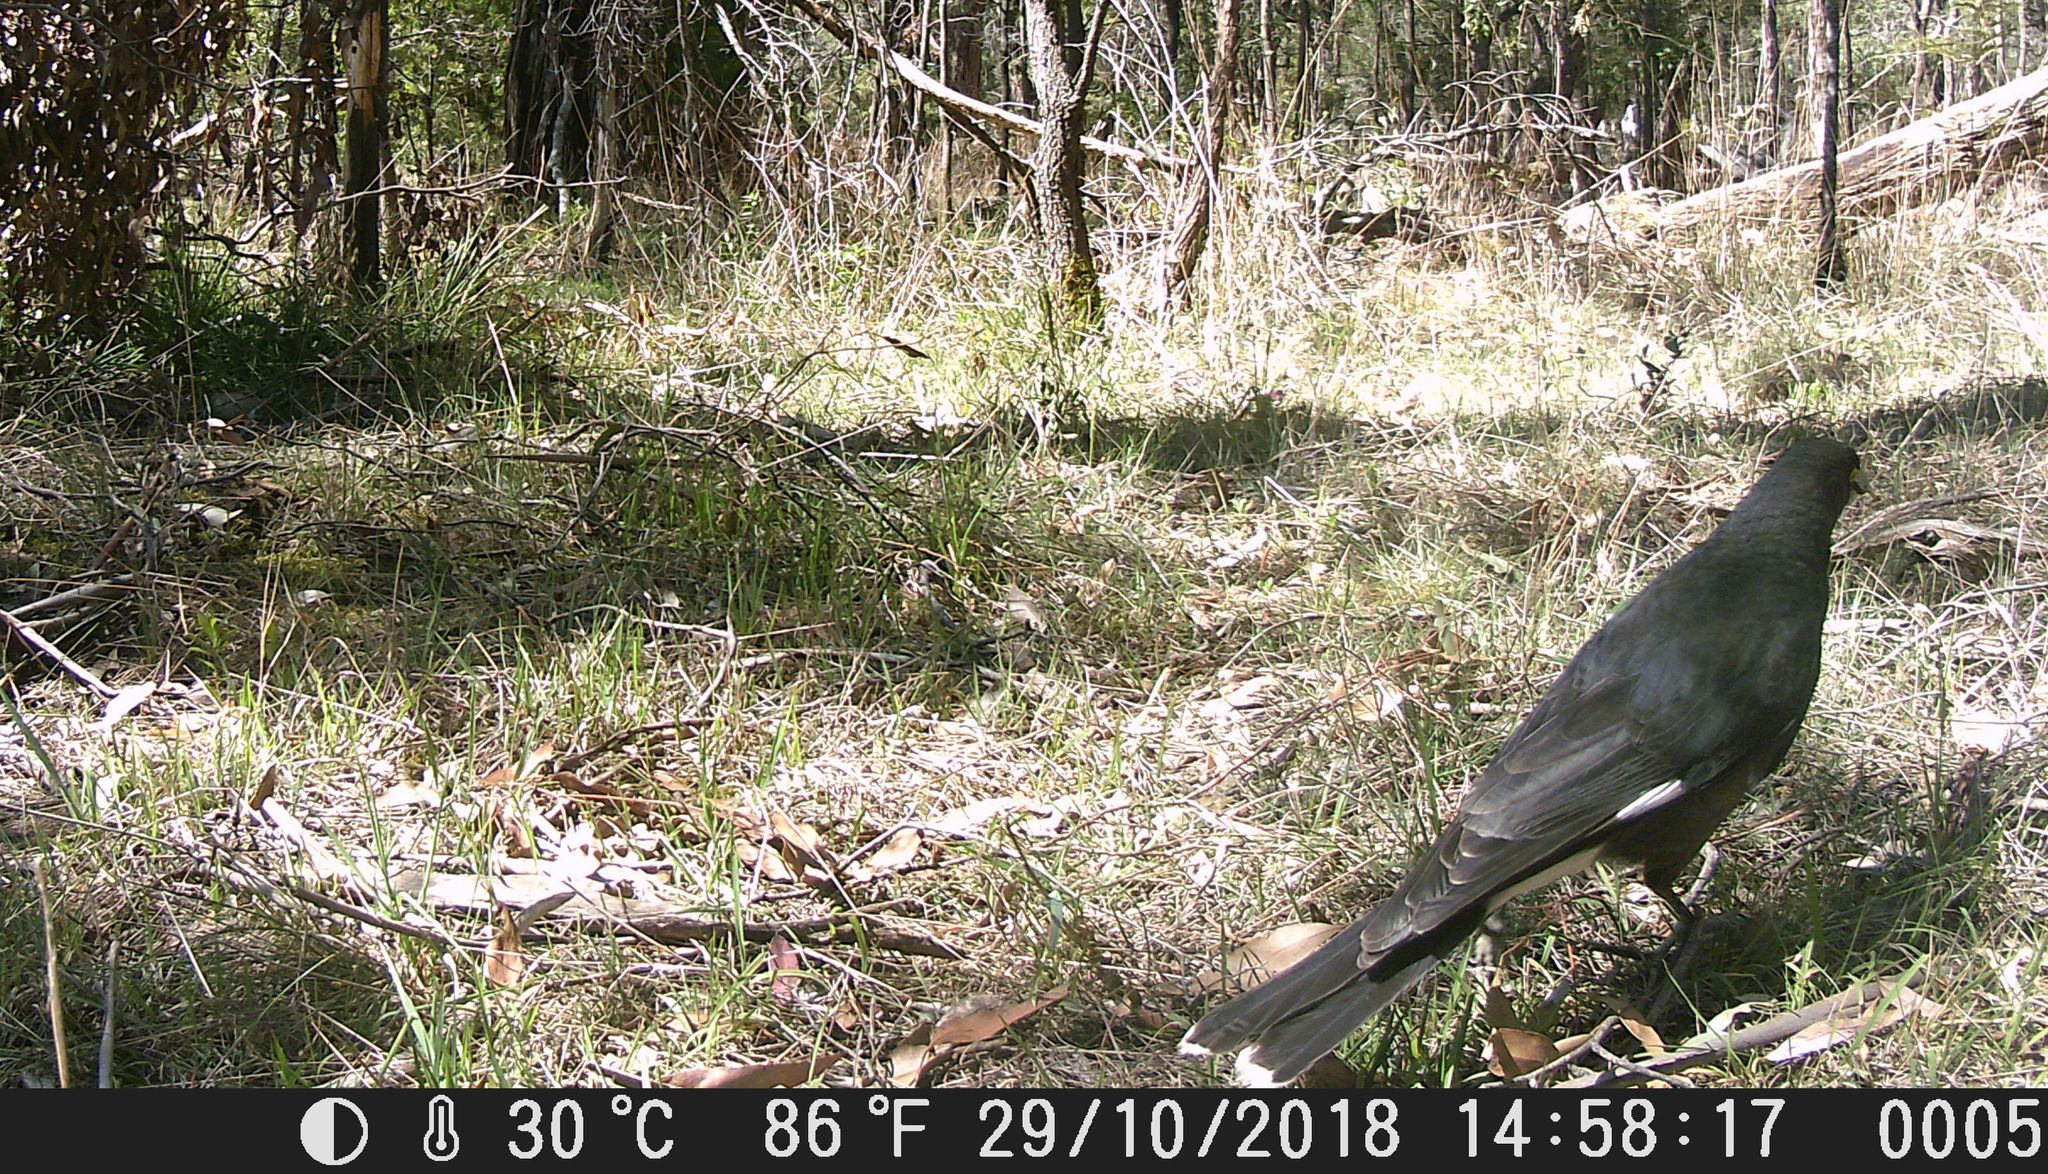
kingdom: Animalia
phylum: Chordata
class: Aves
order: Passeriformes
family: Cracticidae
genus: Strepera
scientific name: Strepera graculina
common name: Pied currawong
